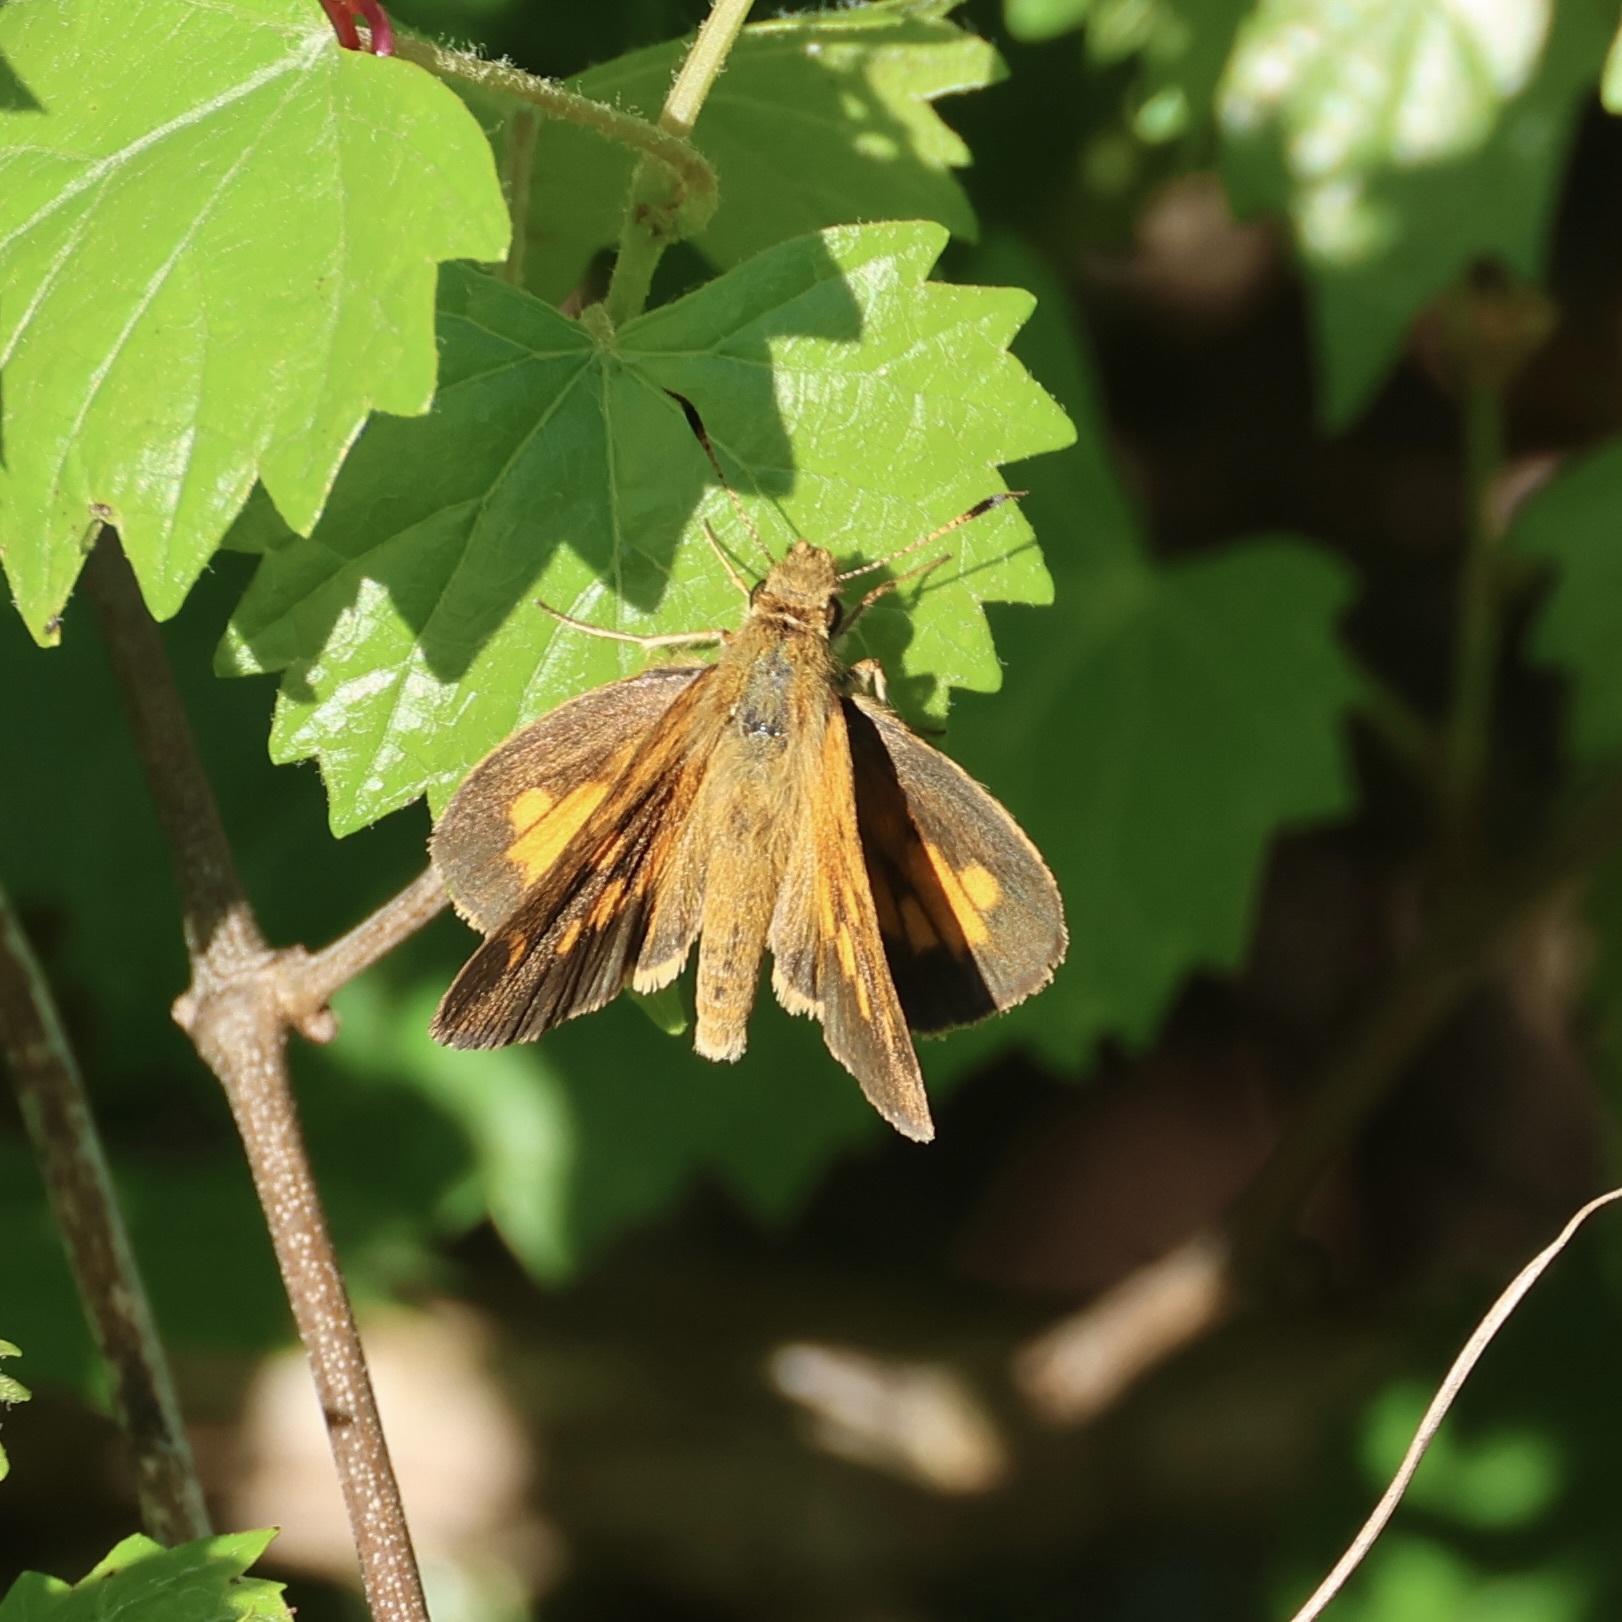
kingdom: Animalia
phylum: Arthropoda
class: Insecta
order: Lepidoptera
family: Hesperiidae
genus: Poanes
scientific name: Poanes viator
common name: Broad-winged skipper
